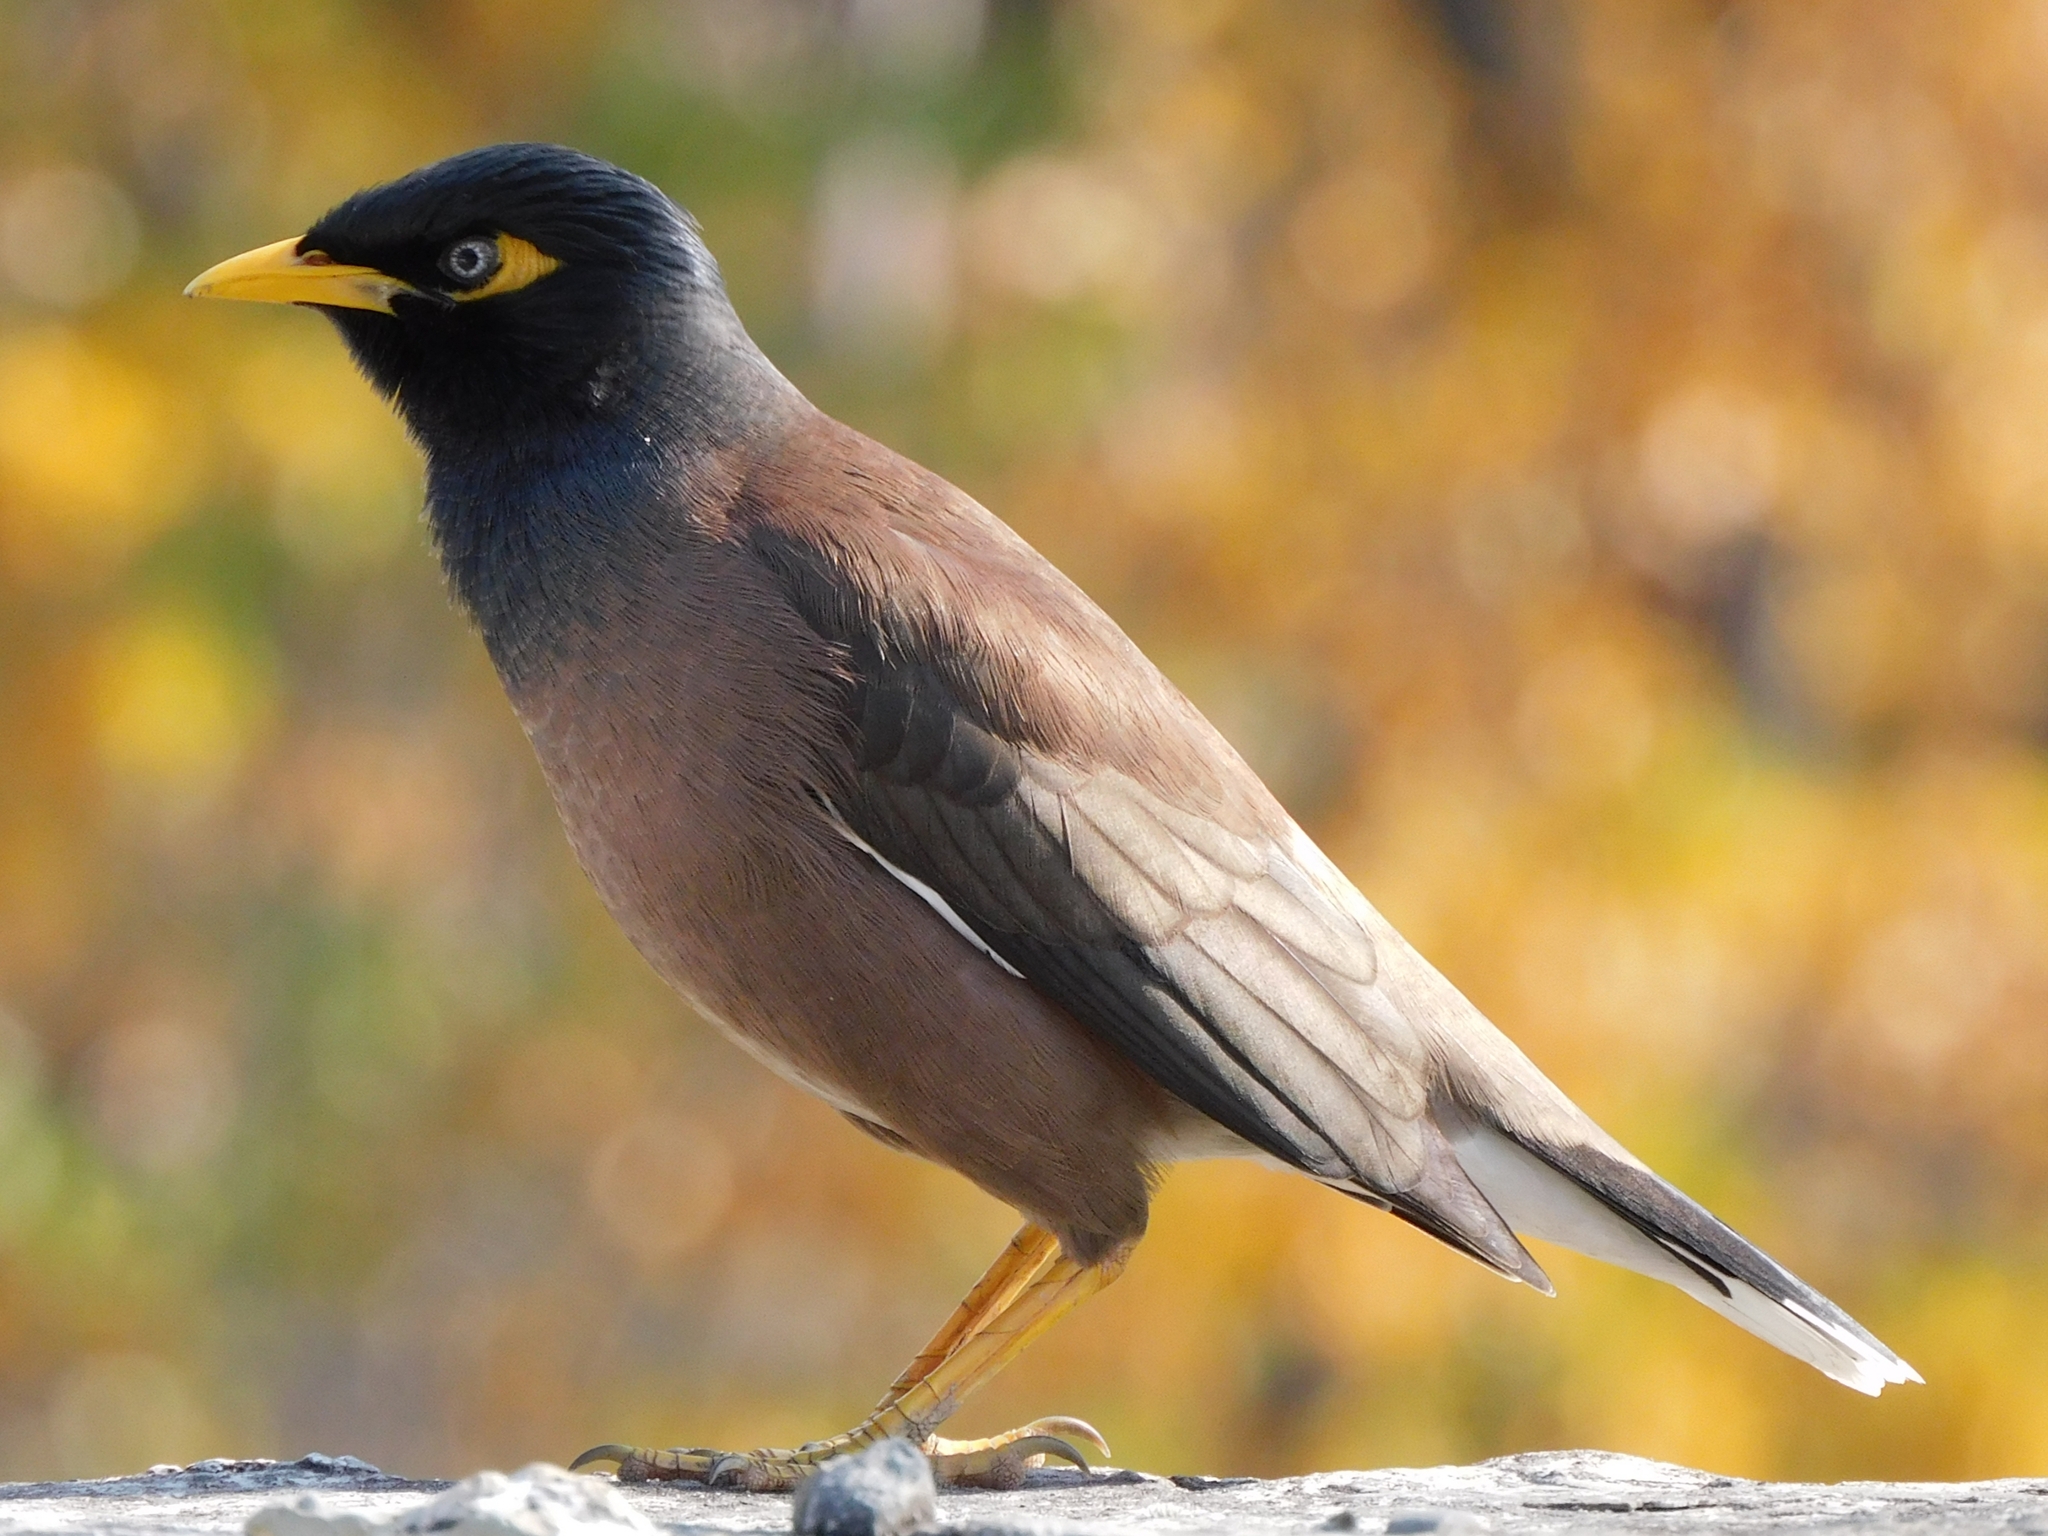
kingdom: Animalia
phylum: Chordata
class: Aves
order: Passeriformes
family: Sturnidae
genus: Acridotheres
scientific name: Acridotheres tristis
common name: Common myna
